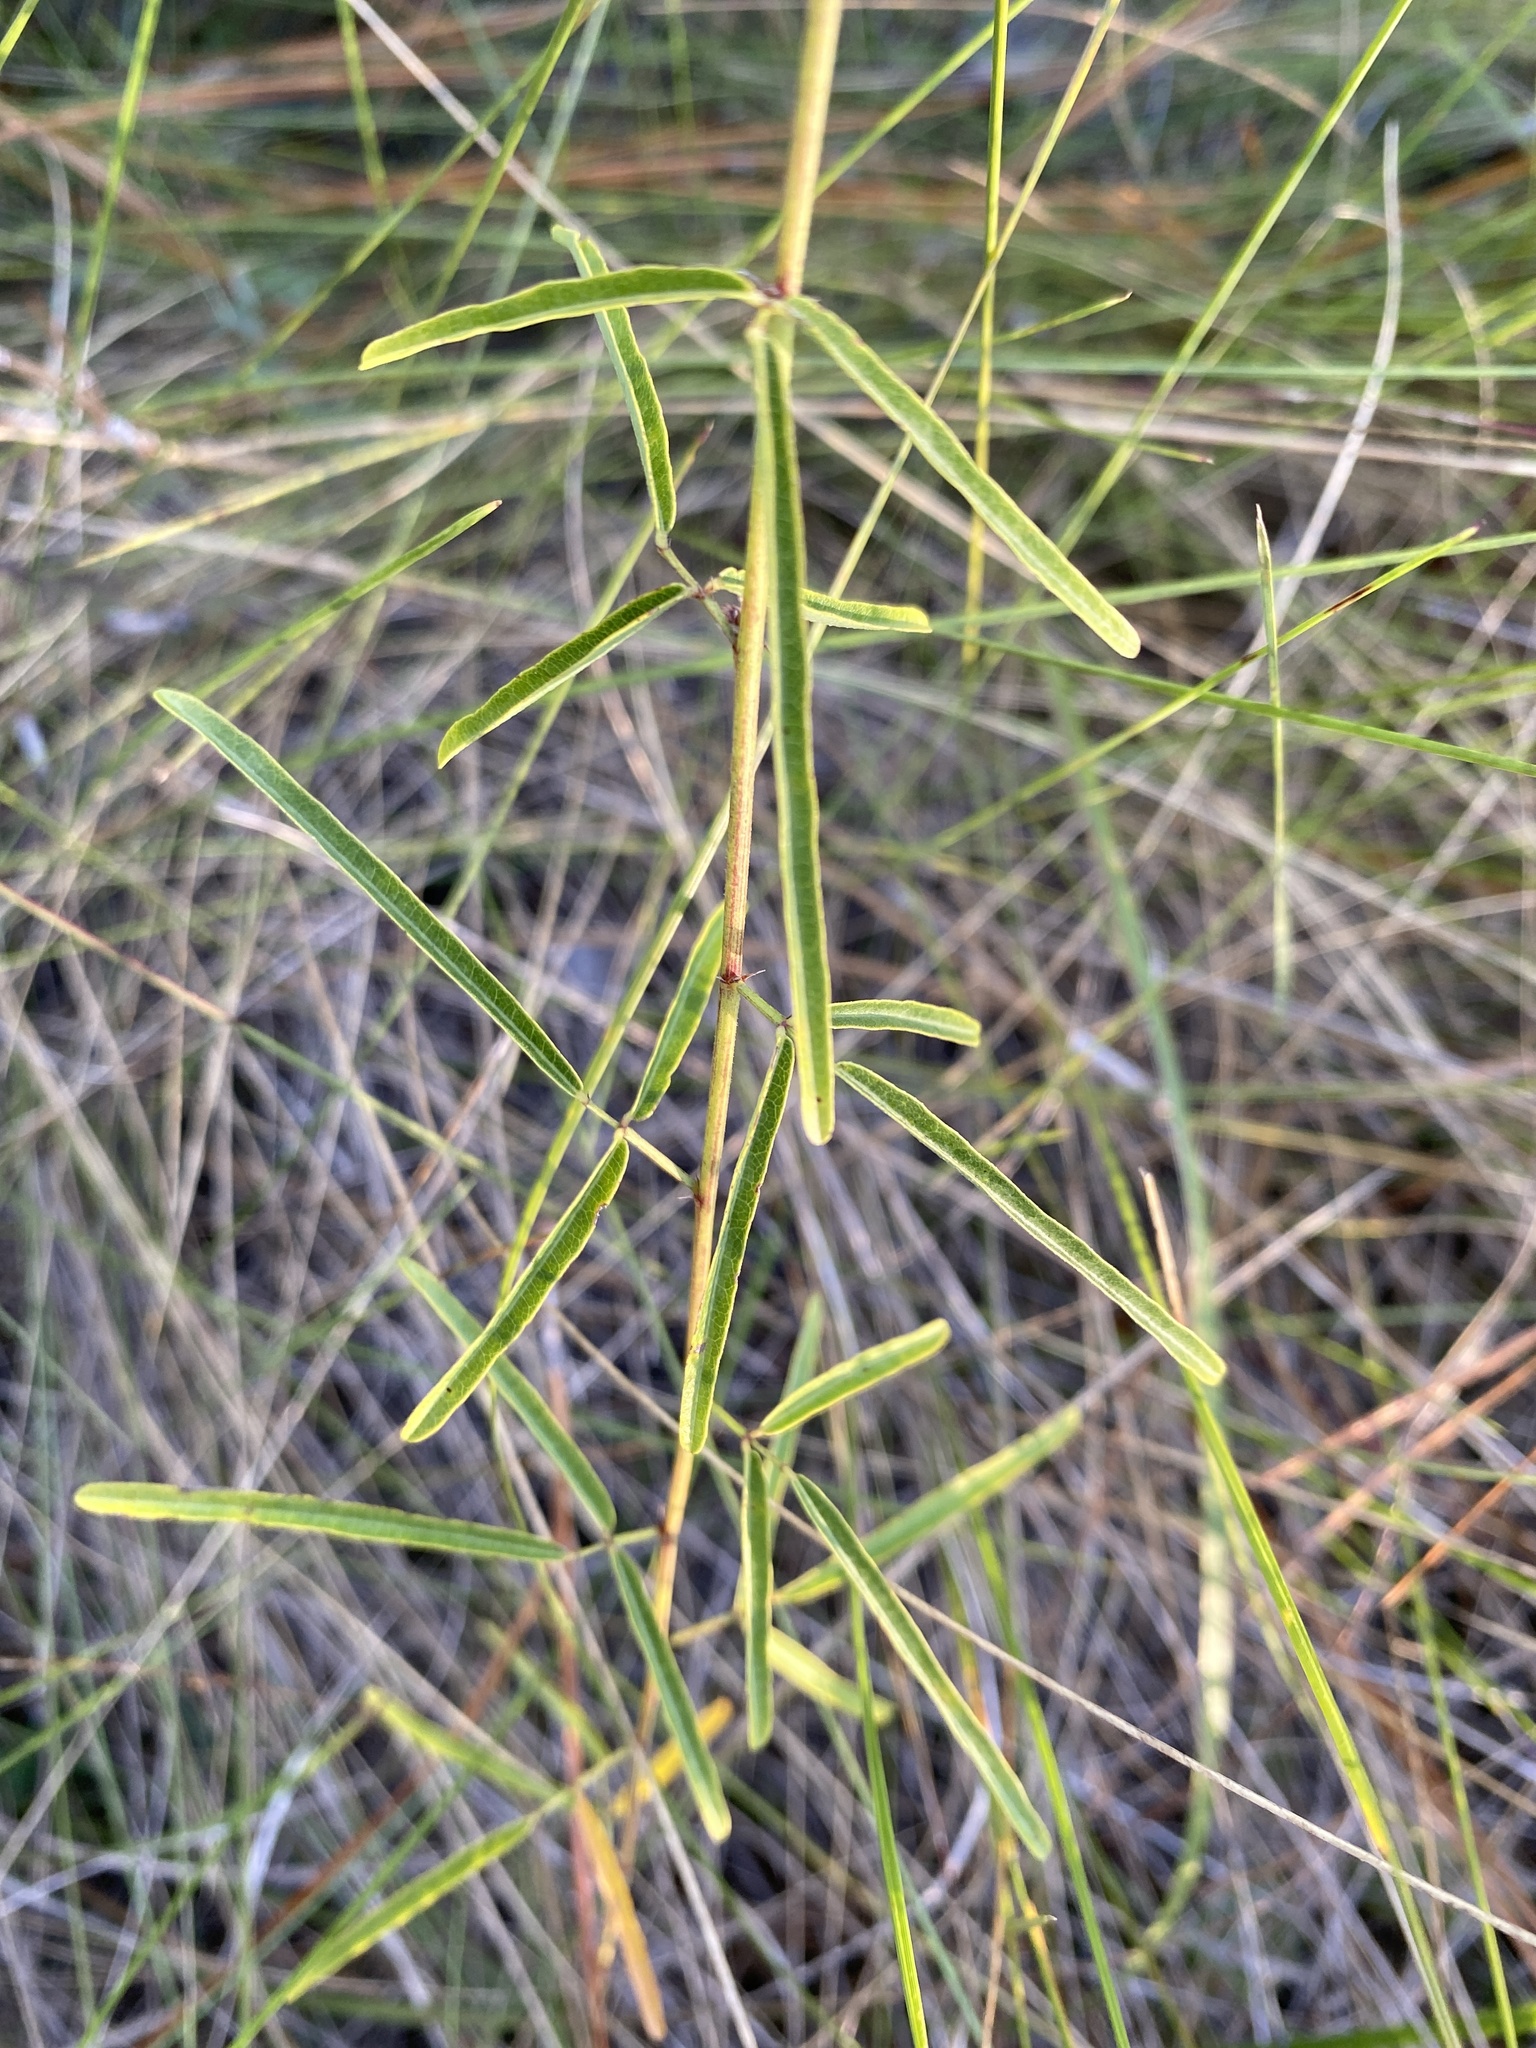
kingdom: Plantae
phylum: Tracheophyta
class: Magnoliopsida
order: Fabales
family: Fabaceae
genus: Desmodium
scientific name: Desmodium tenuifolium
